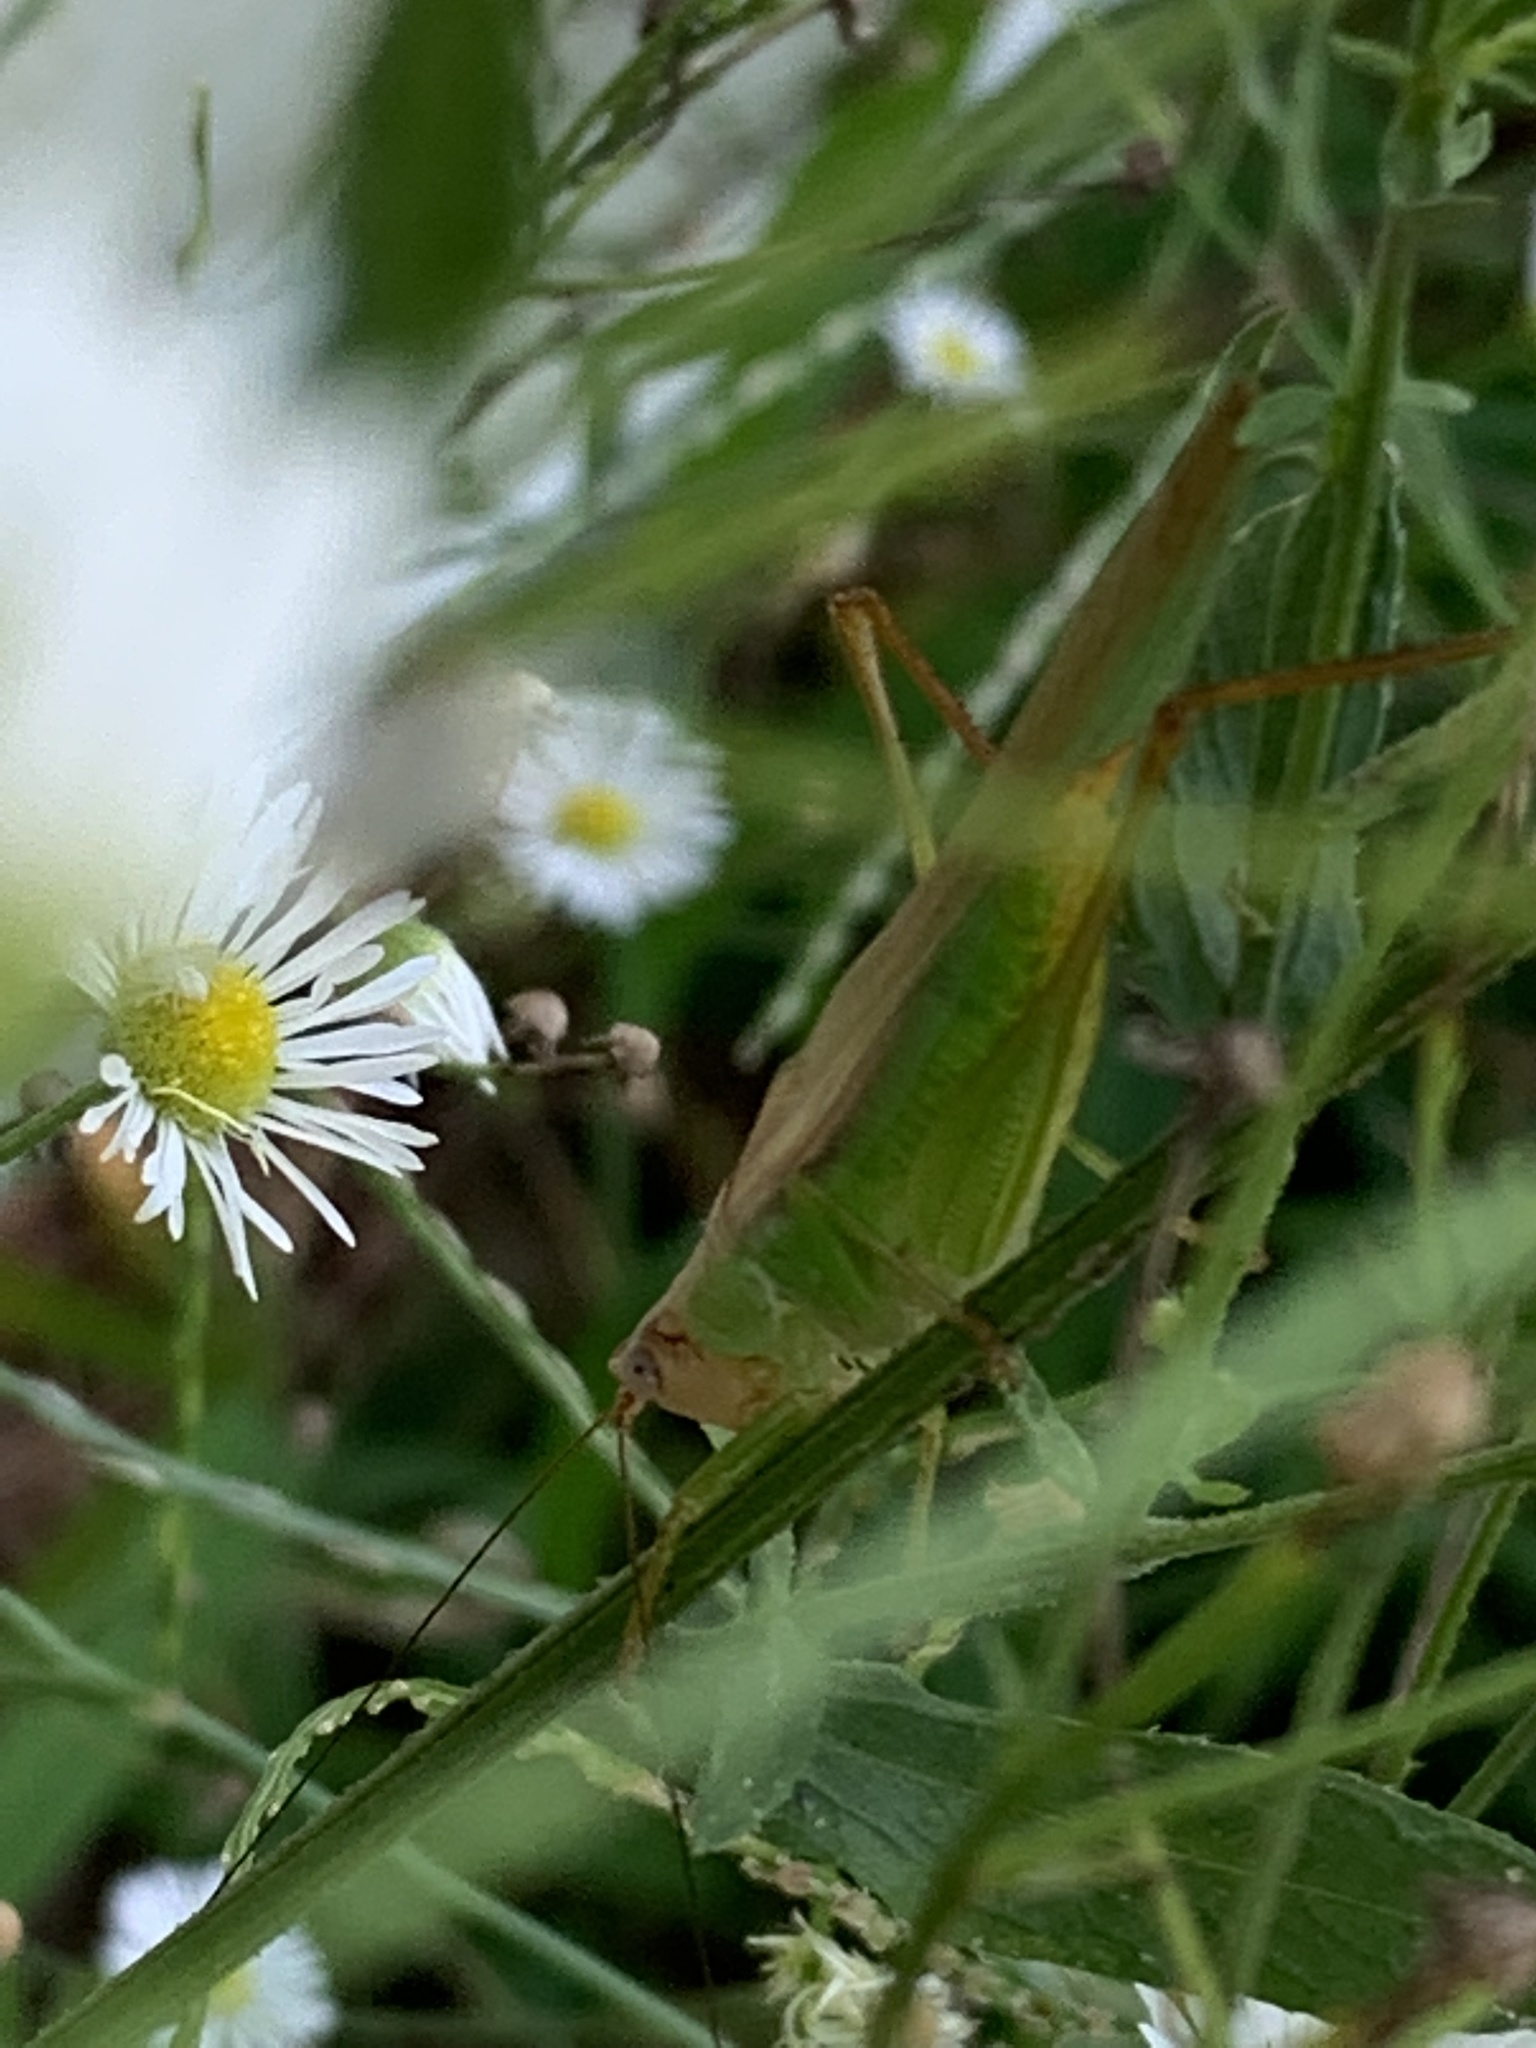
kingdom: Animalia
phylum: Arthropoda
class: Insecta
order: Orthoptera
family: Tettigoniidae
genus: Orchelimum
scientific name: Orchelimum agilis
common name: Agile meadow grasshopper
